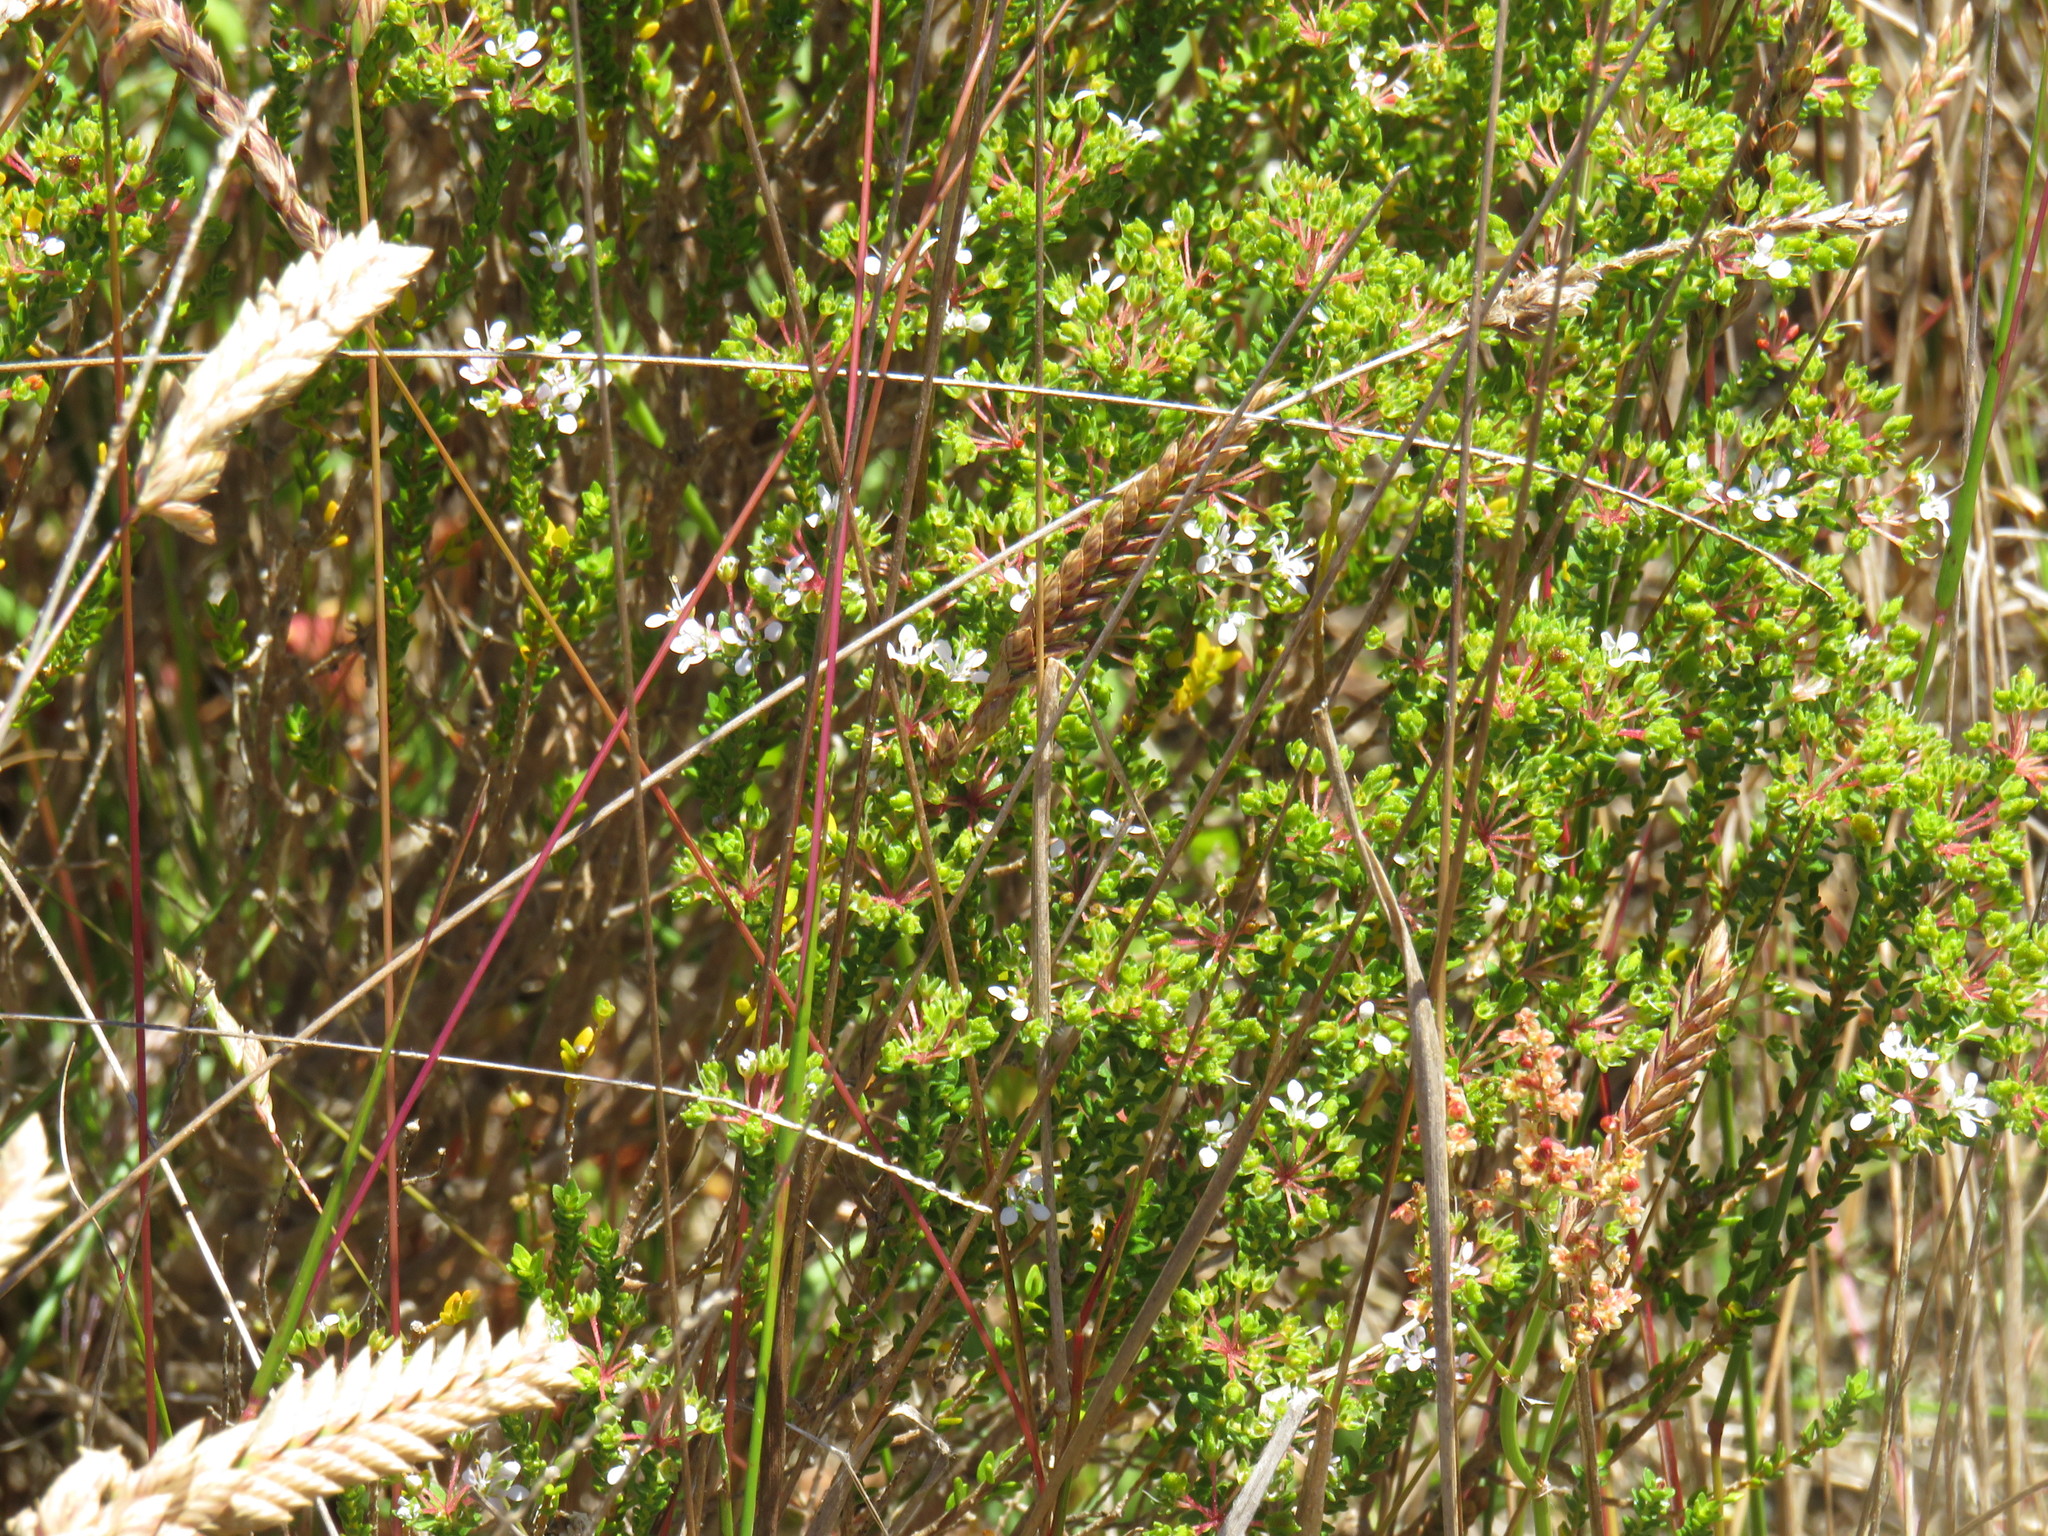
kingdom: Plantae
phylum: Tracheophyta
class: Magnoliopsida
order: Sapindales
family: Rutaceae
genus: Agathosma
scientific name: Agathosma glabrata
